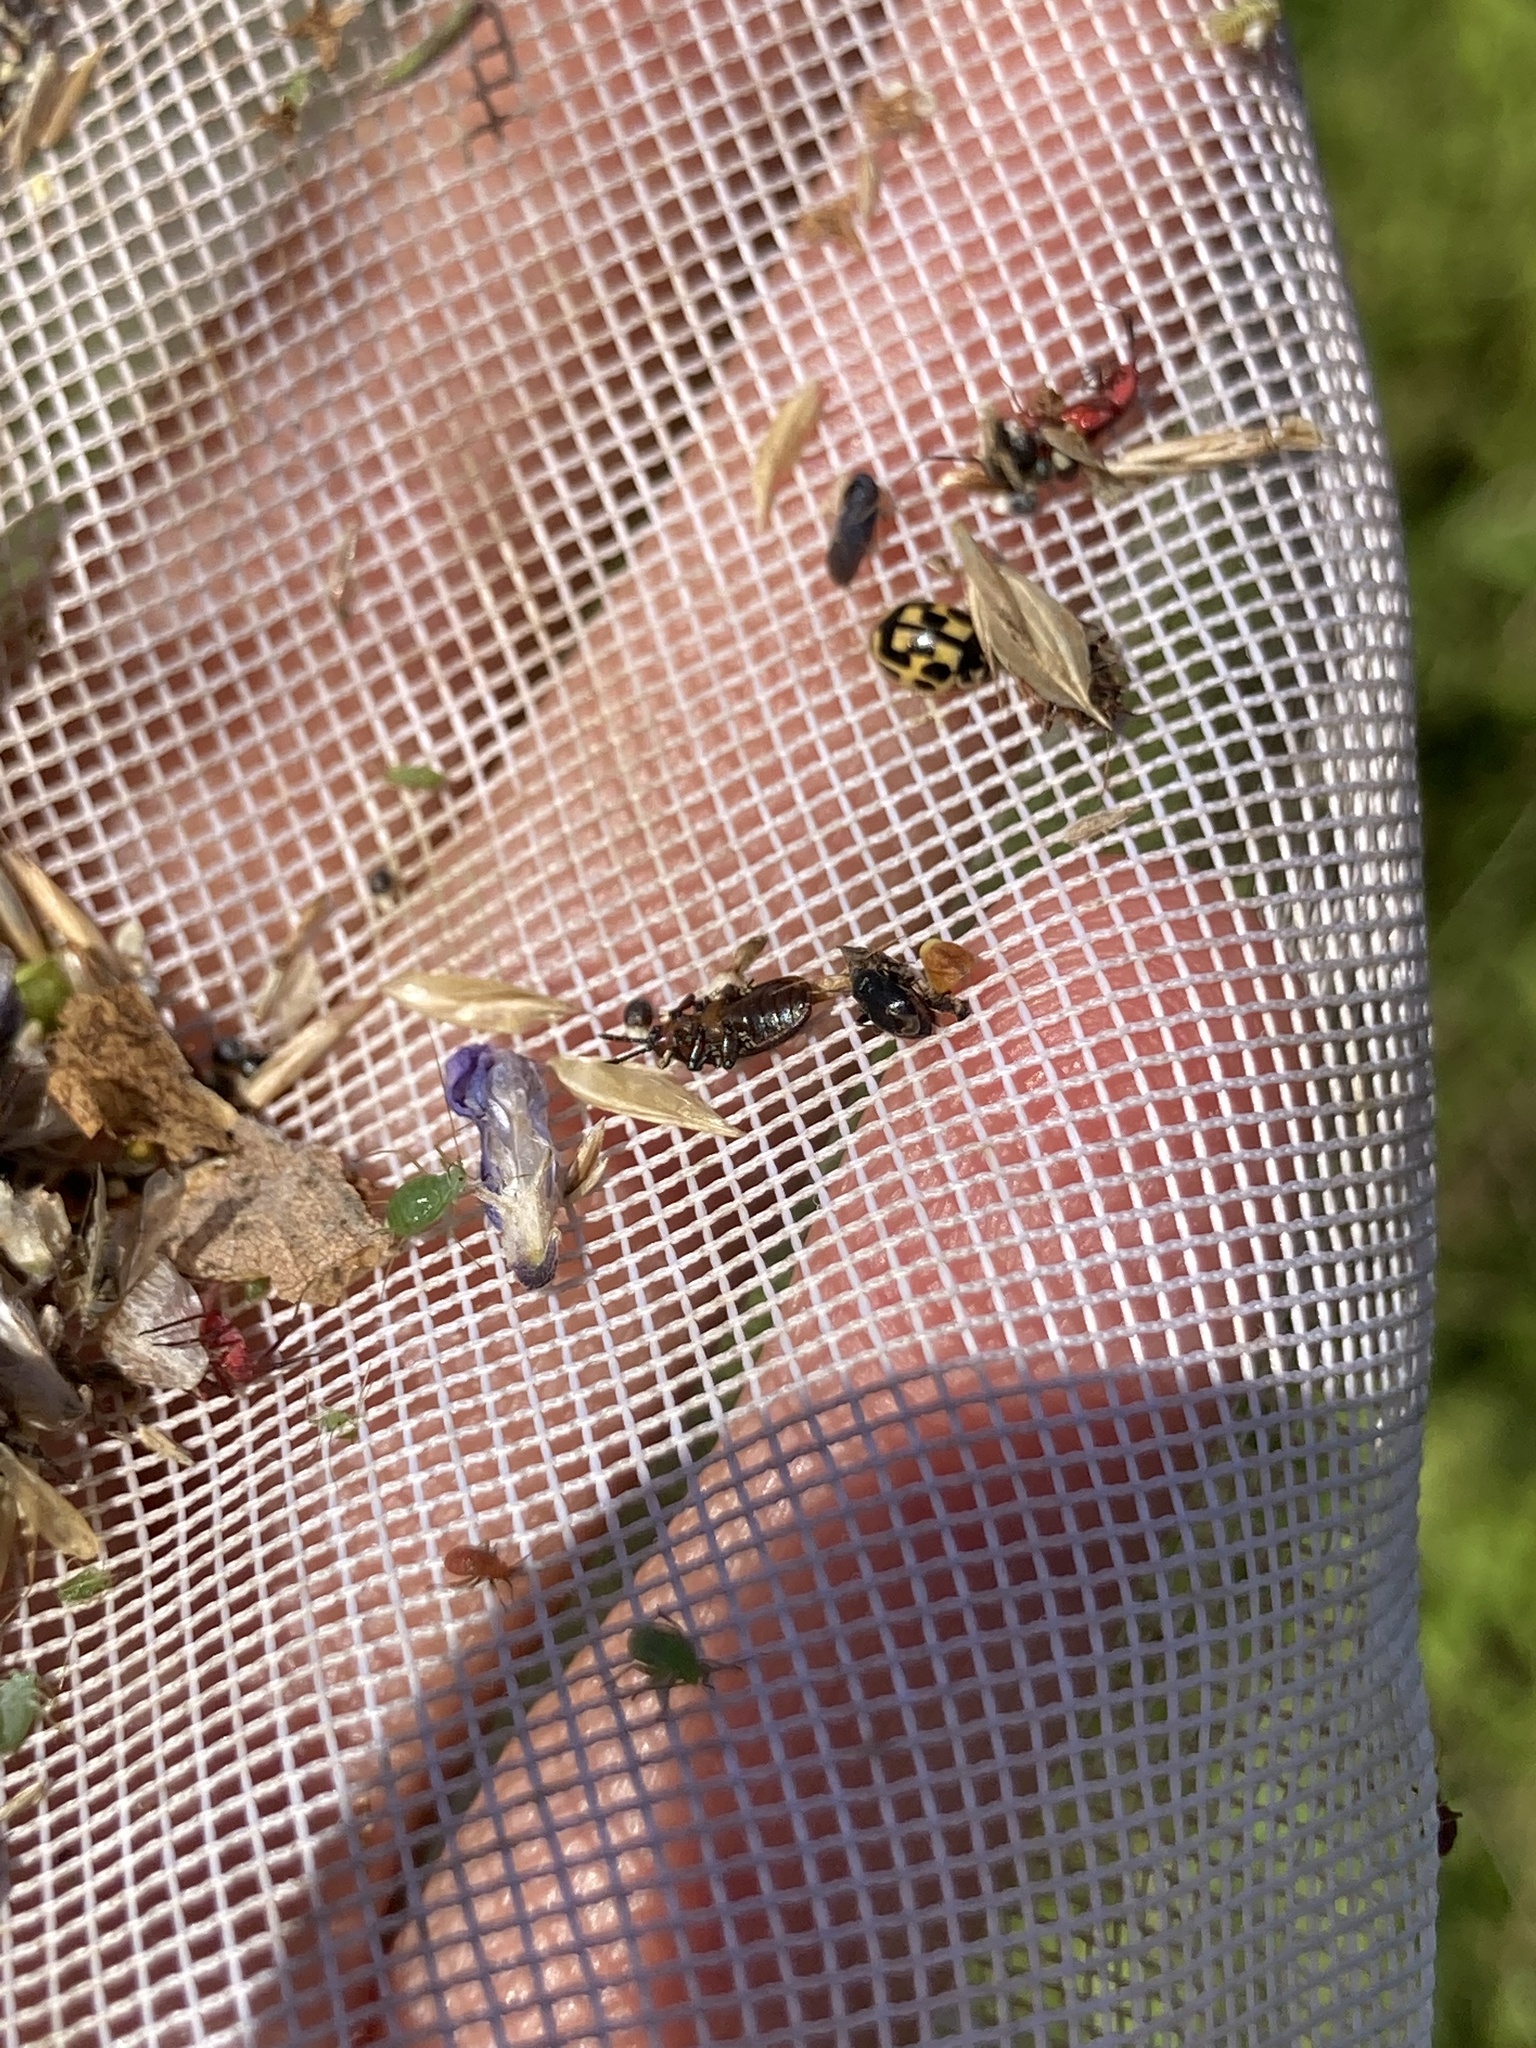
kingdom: Animalia
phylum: Arthropoda
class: Insecta
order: Coleoptera
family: Coccinellidae
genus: Propylaea
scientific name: Propylaea quatuordecimpunctata
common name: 14-spotted ladybird beetle
